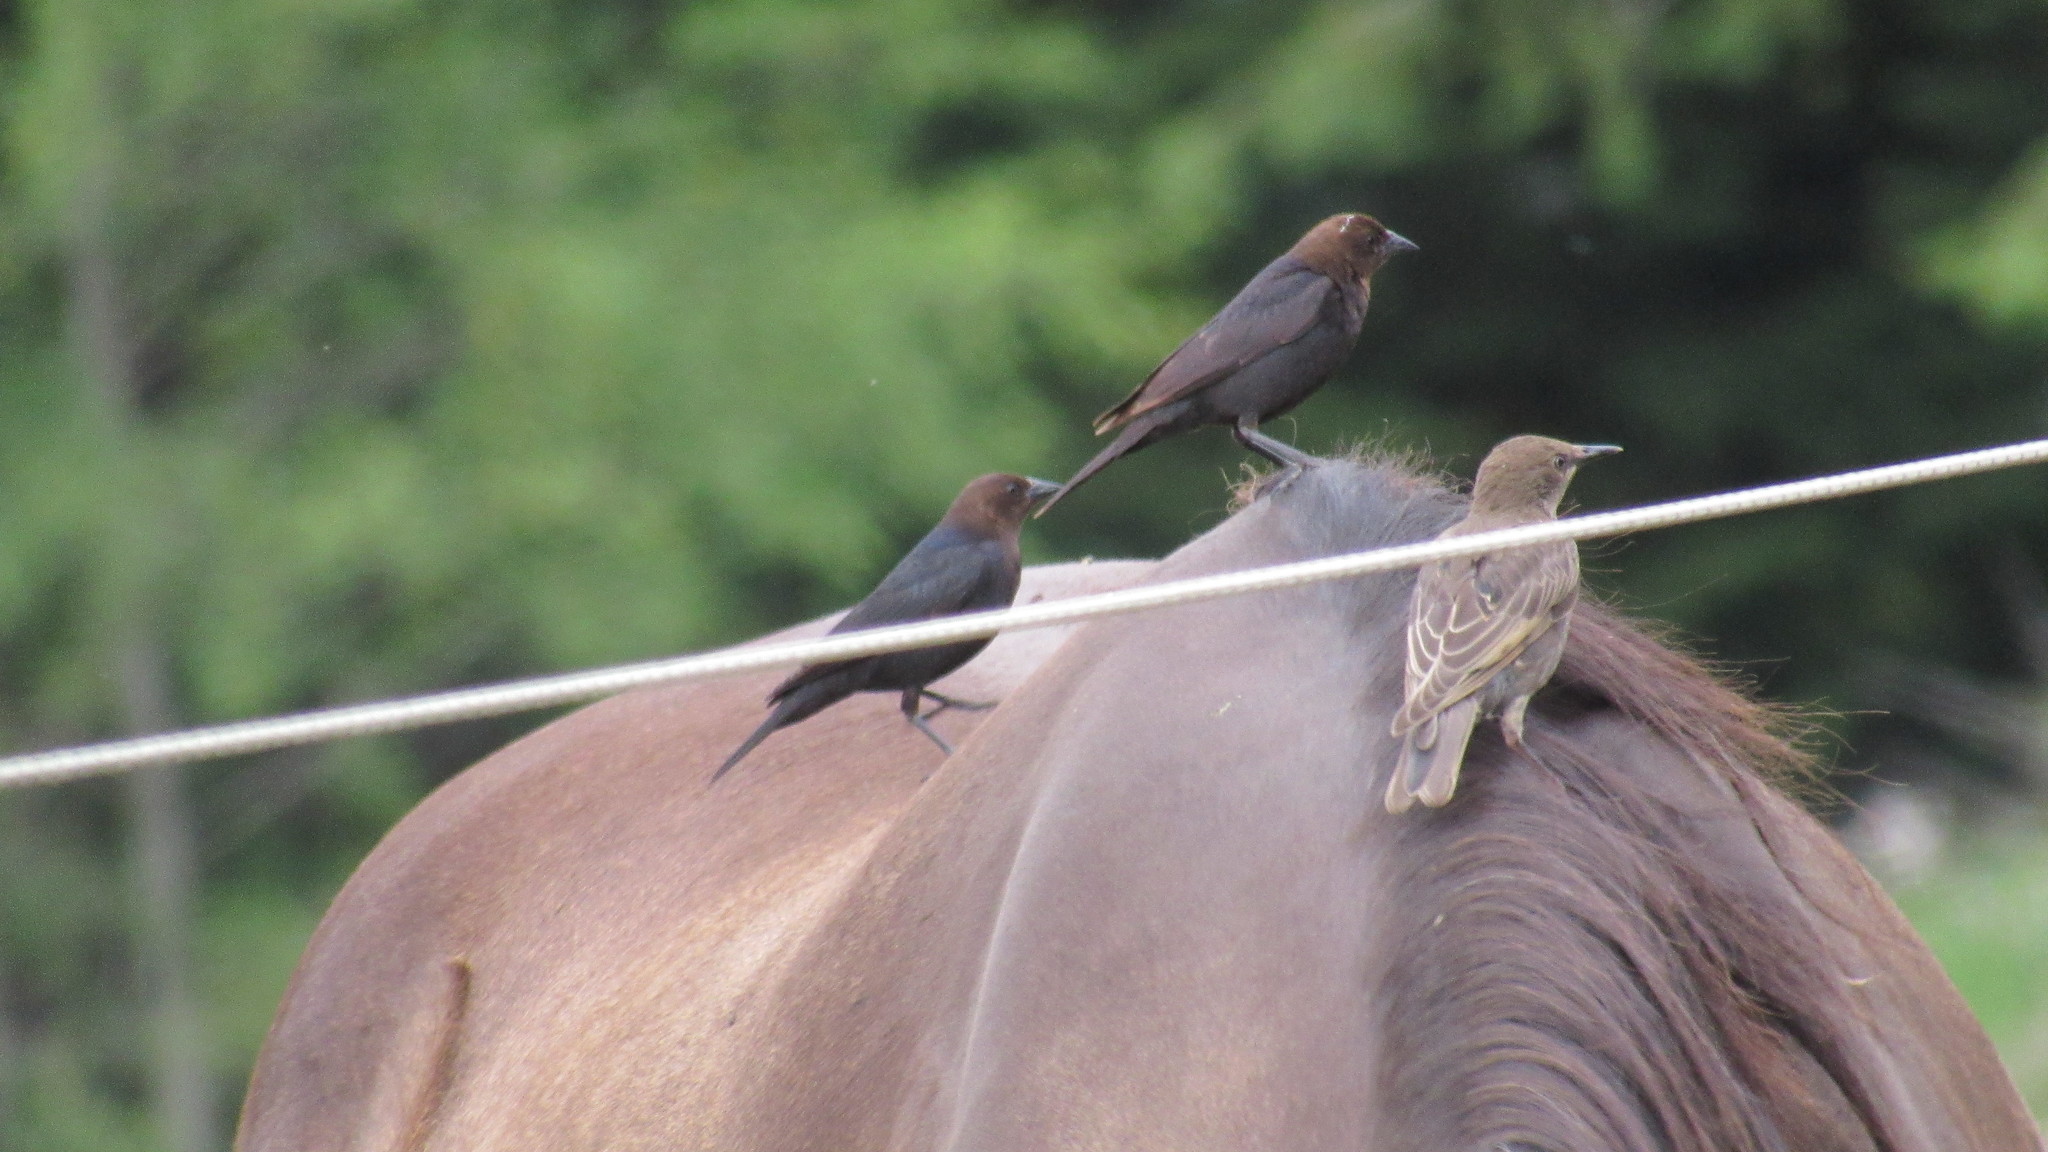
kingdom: Animalia
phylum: Chordata
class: Aves
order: Passeriformes
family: Icteridae
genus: Molothrus
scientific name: Molothrus ater
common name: Brown-headed cowbird
